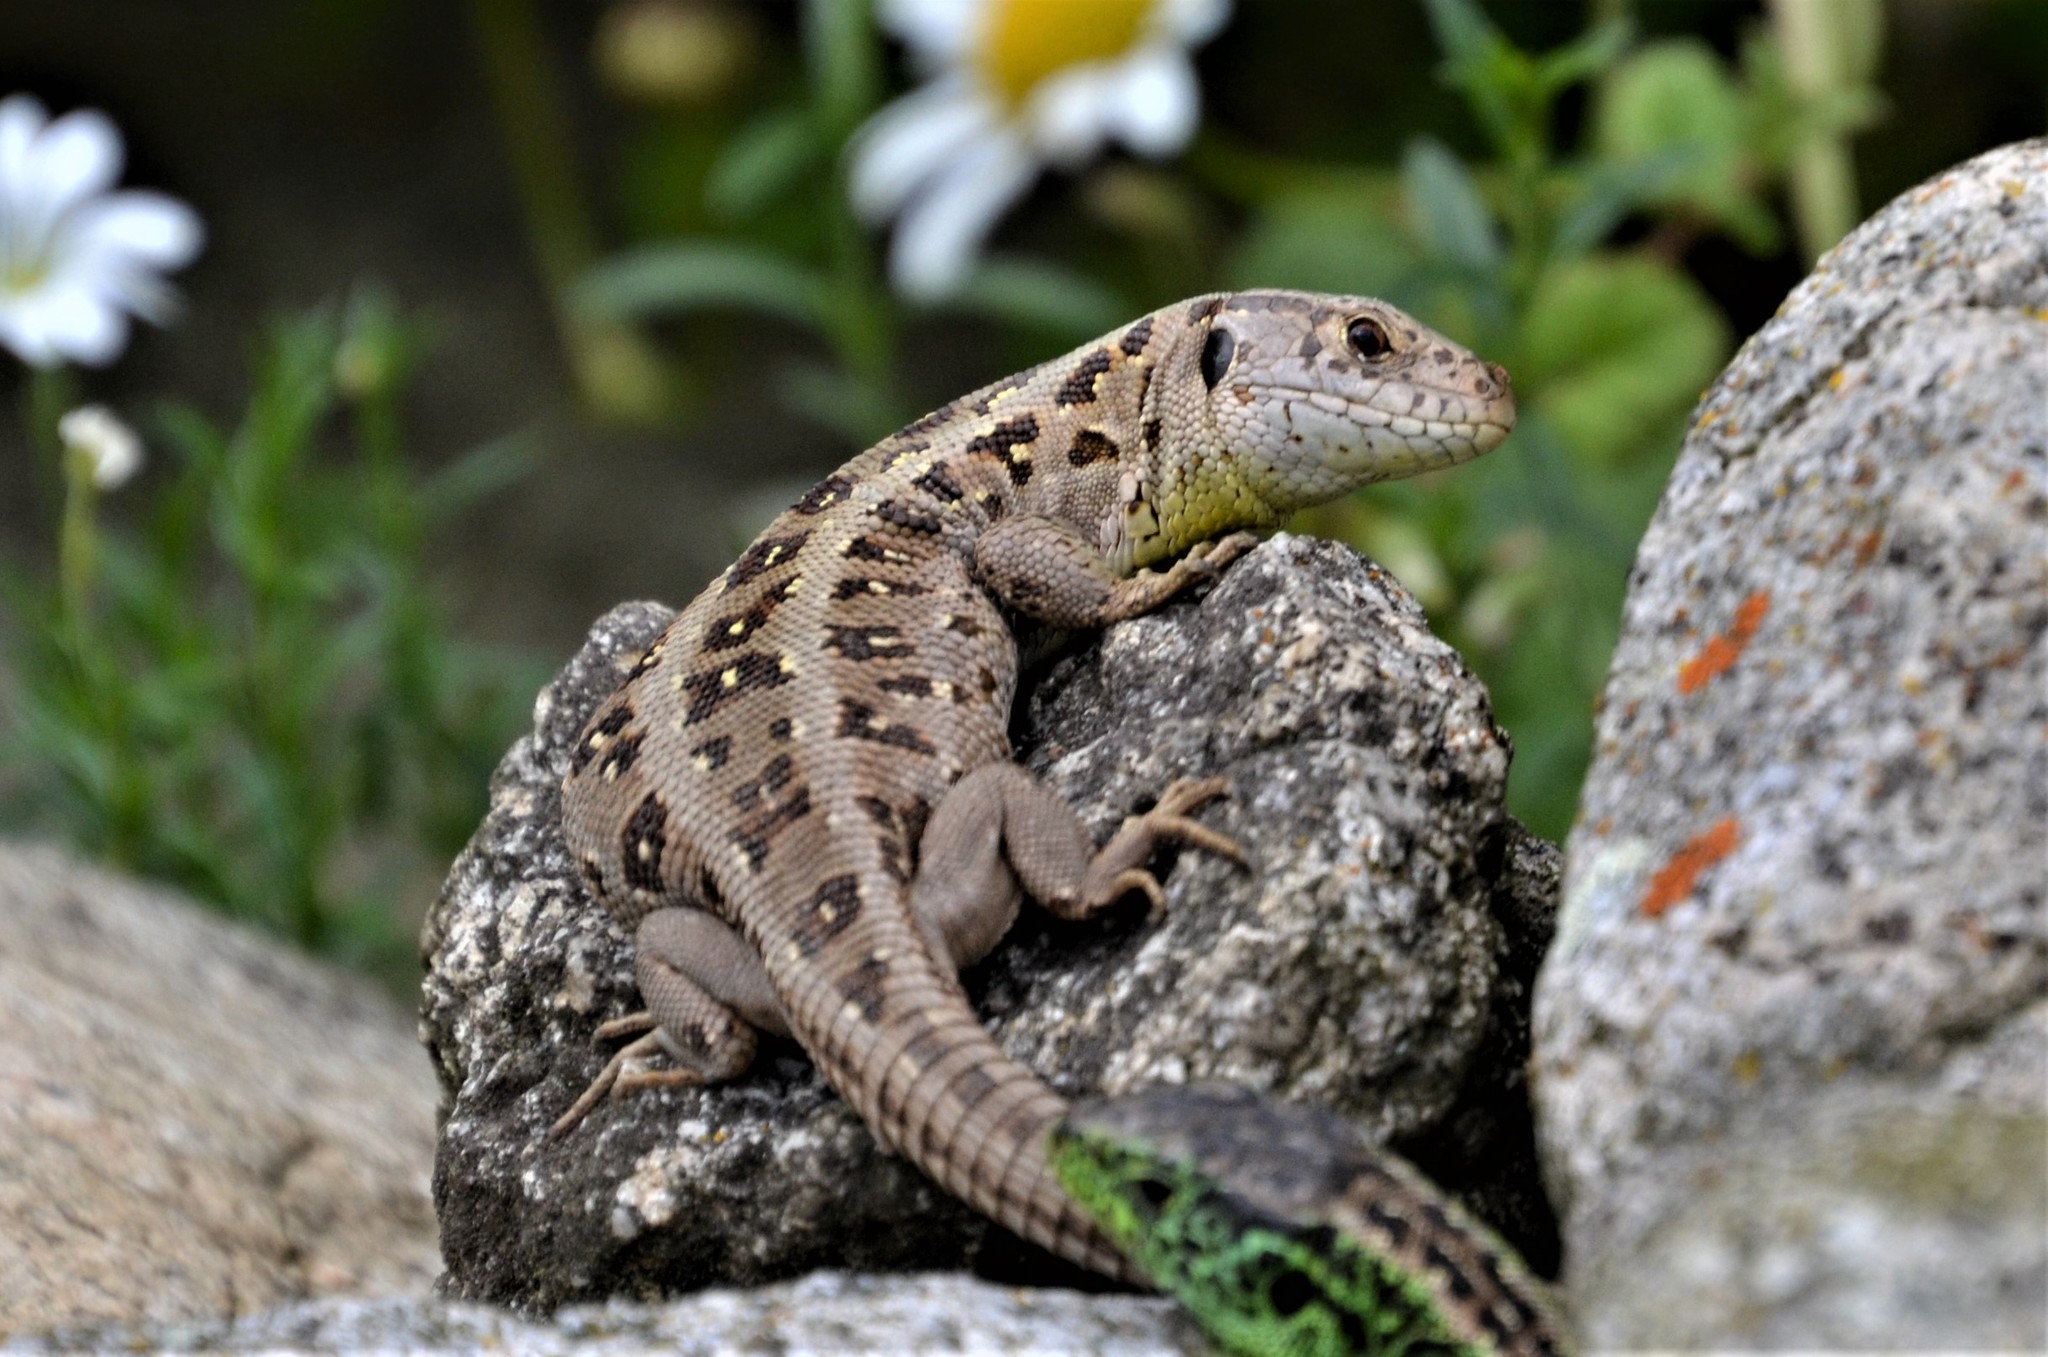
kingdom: Animalia
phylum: Chordata
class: Squamata
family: Lacertidae
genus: Lacerta
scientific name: Lacerta agilis
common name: Sand lizard
